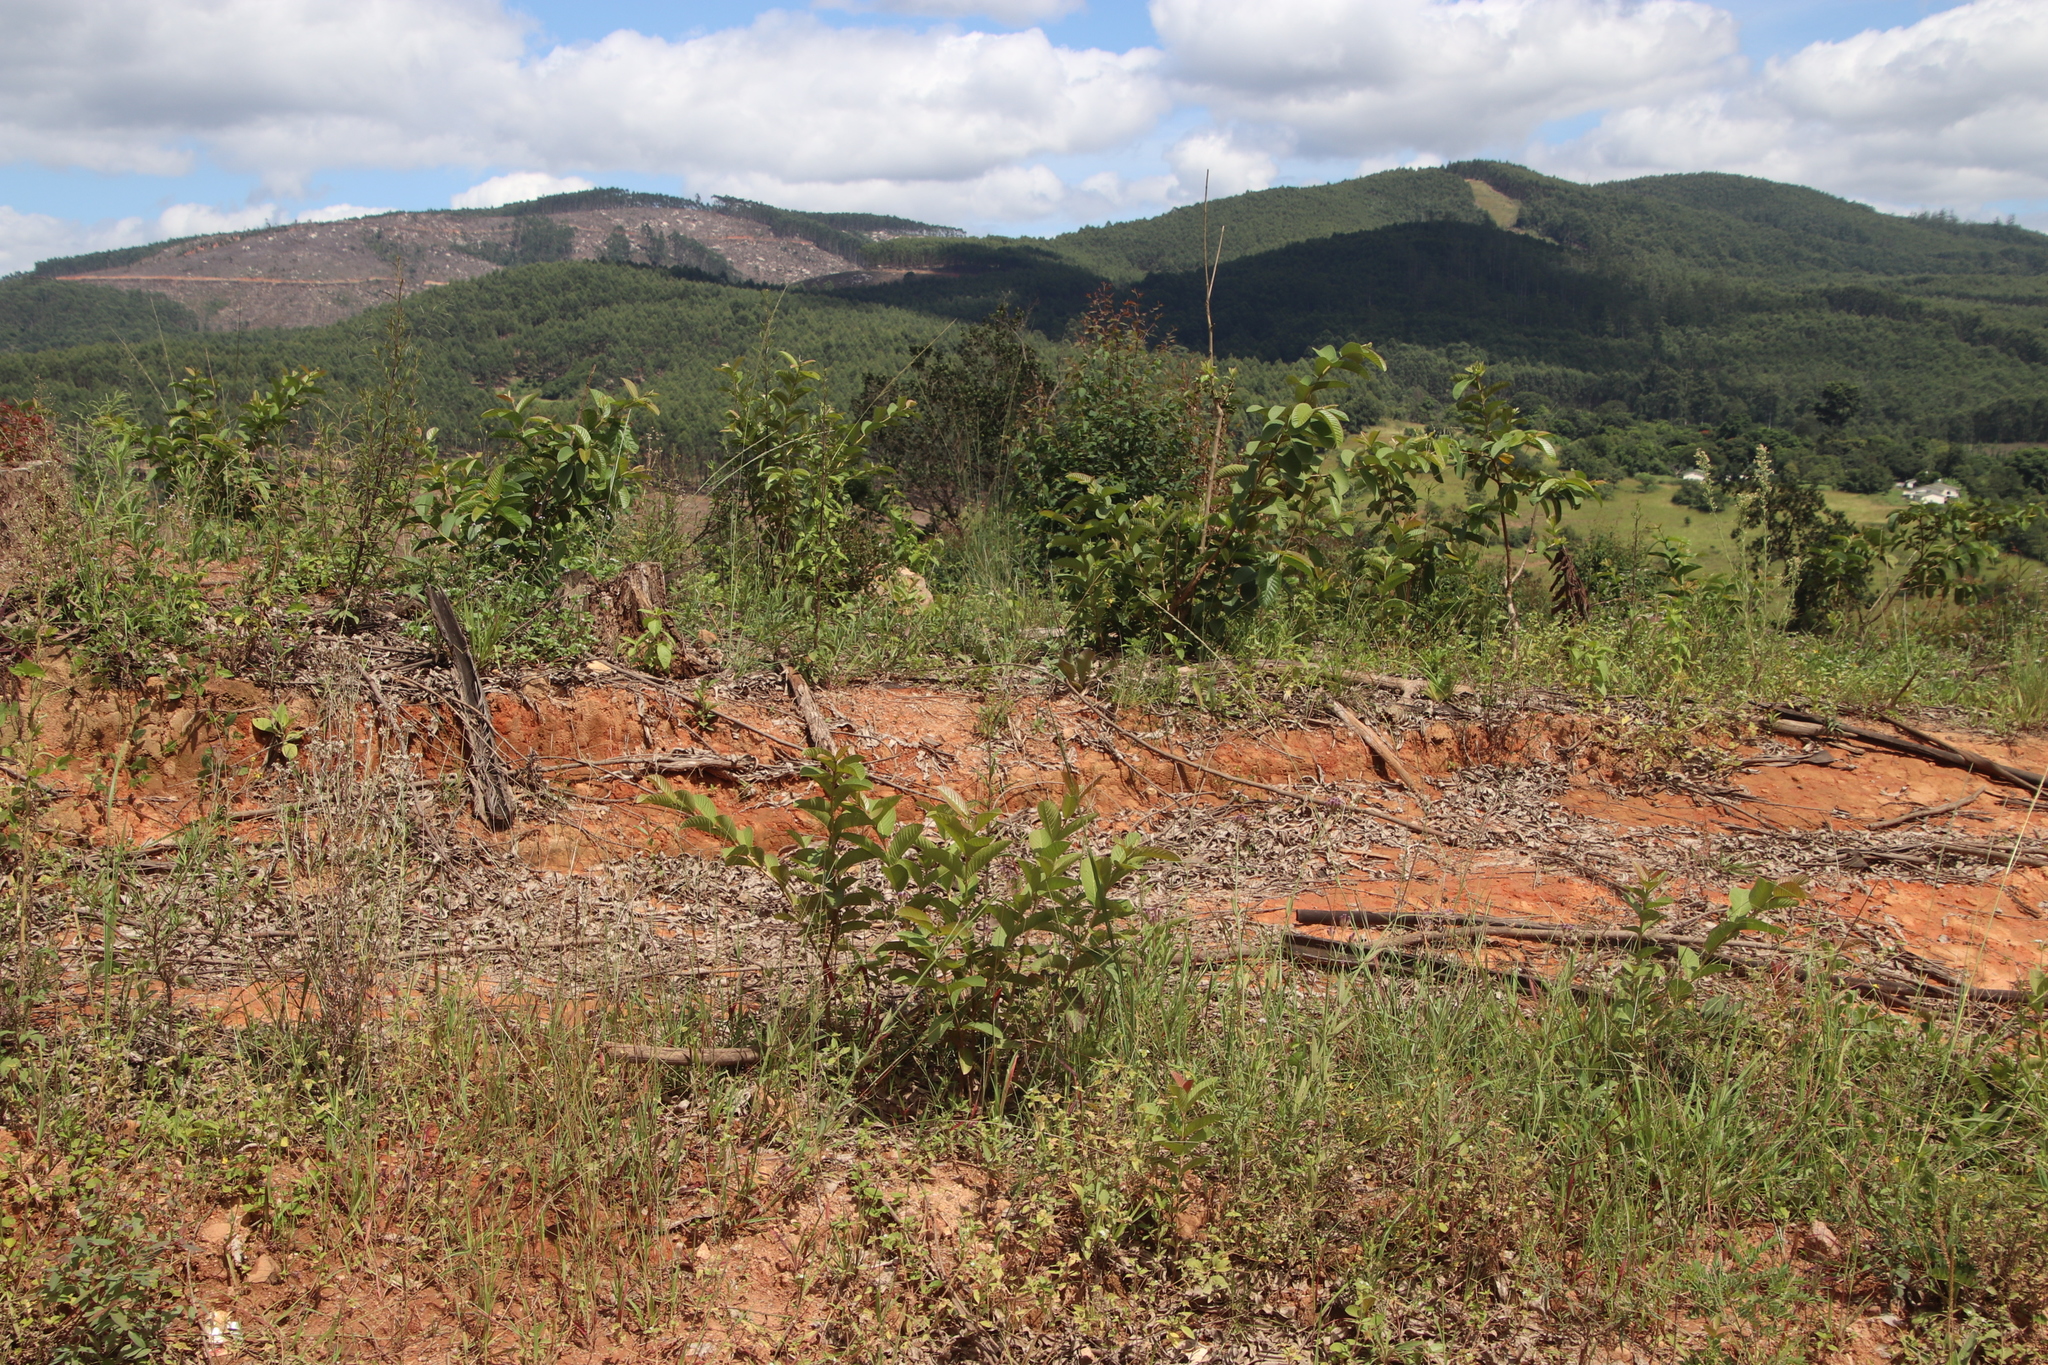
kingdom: Plantae
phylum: Tracheophyta
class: Magnoliopsida
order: Myrtales
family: Myrtaceae
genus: Psidium
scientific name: Psidium guajava
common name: Guava
